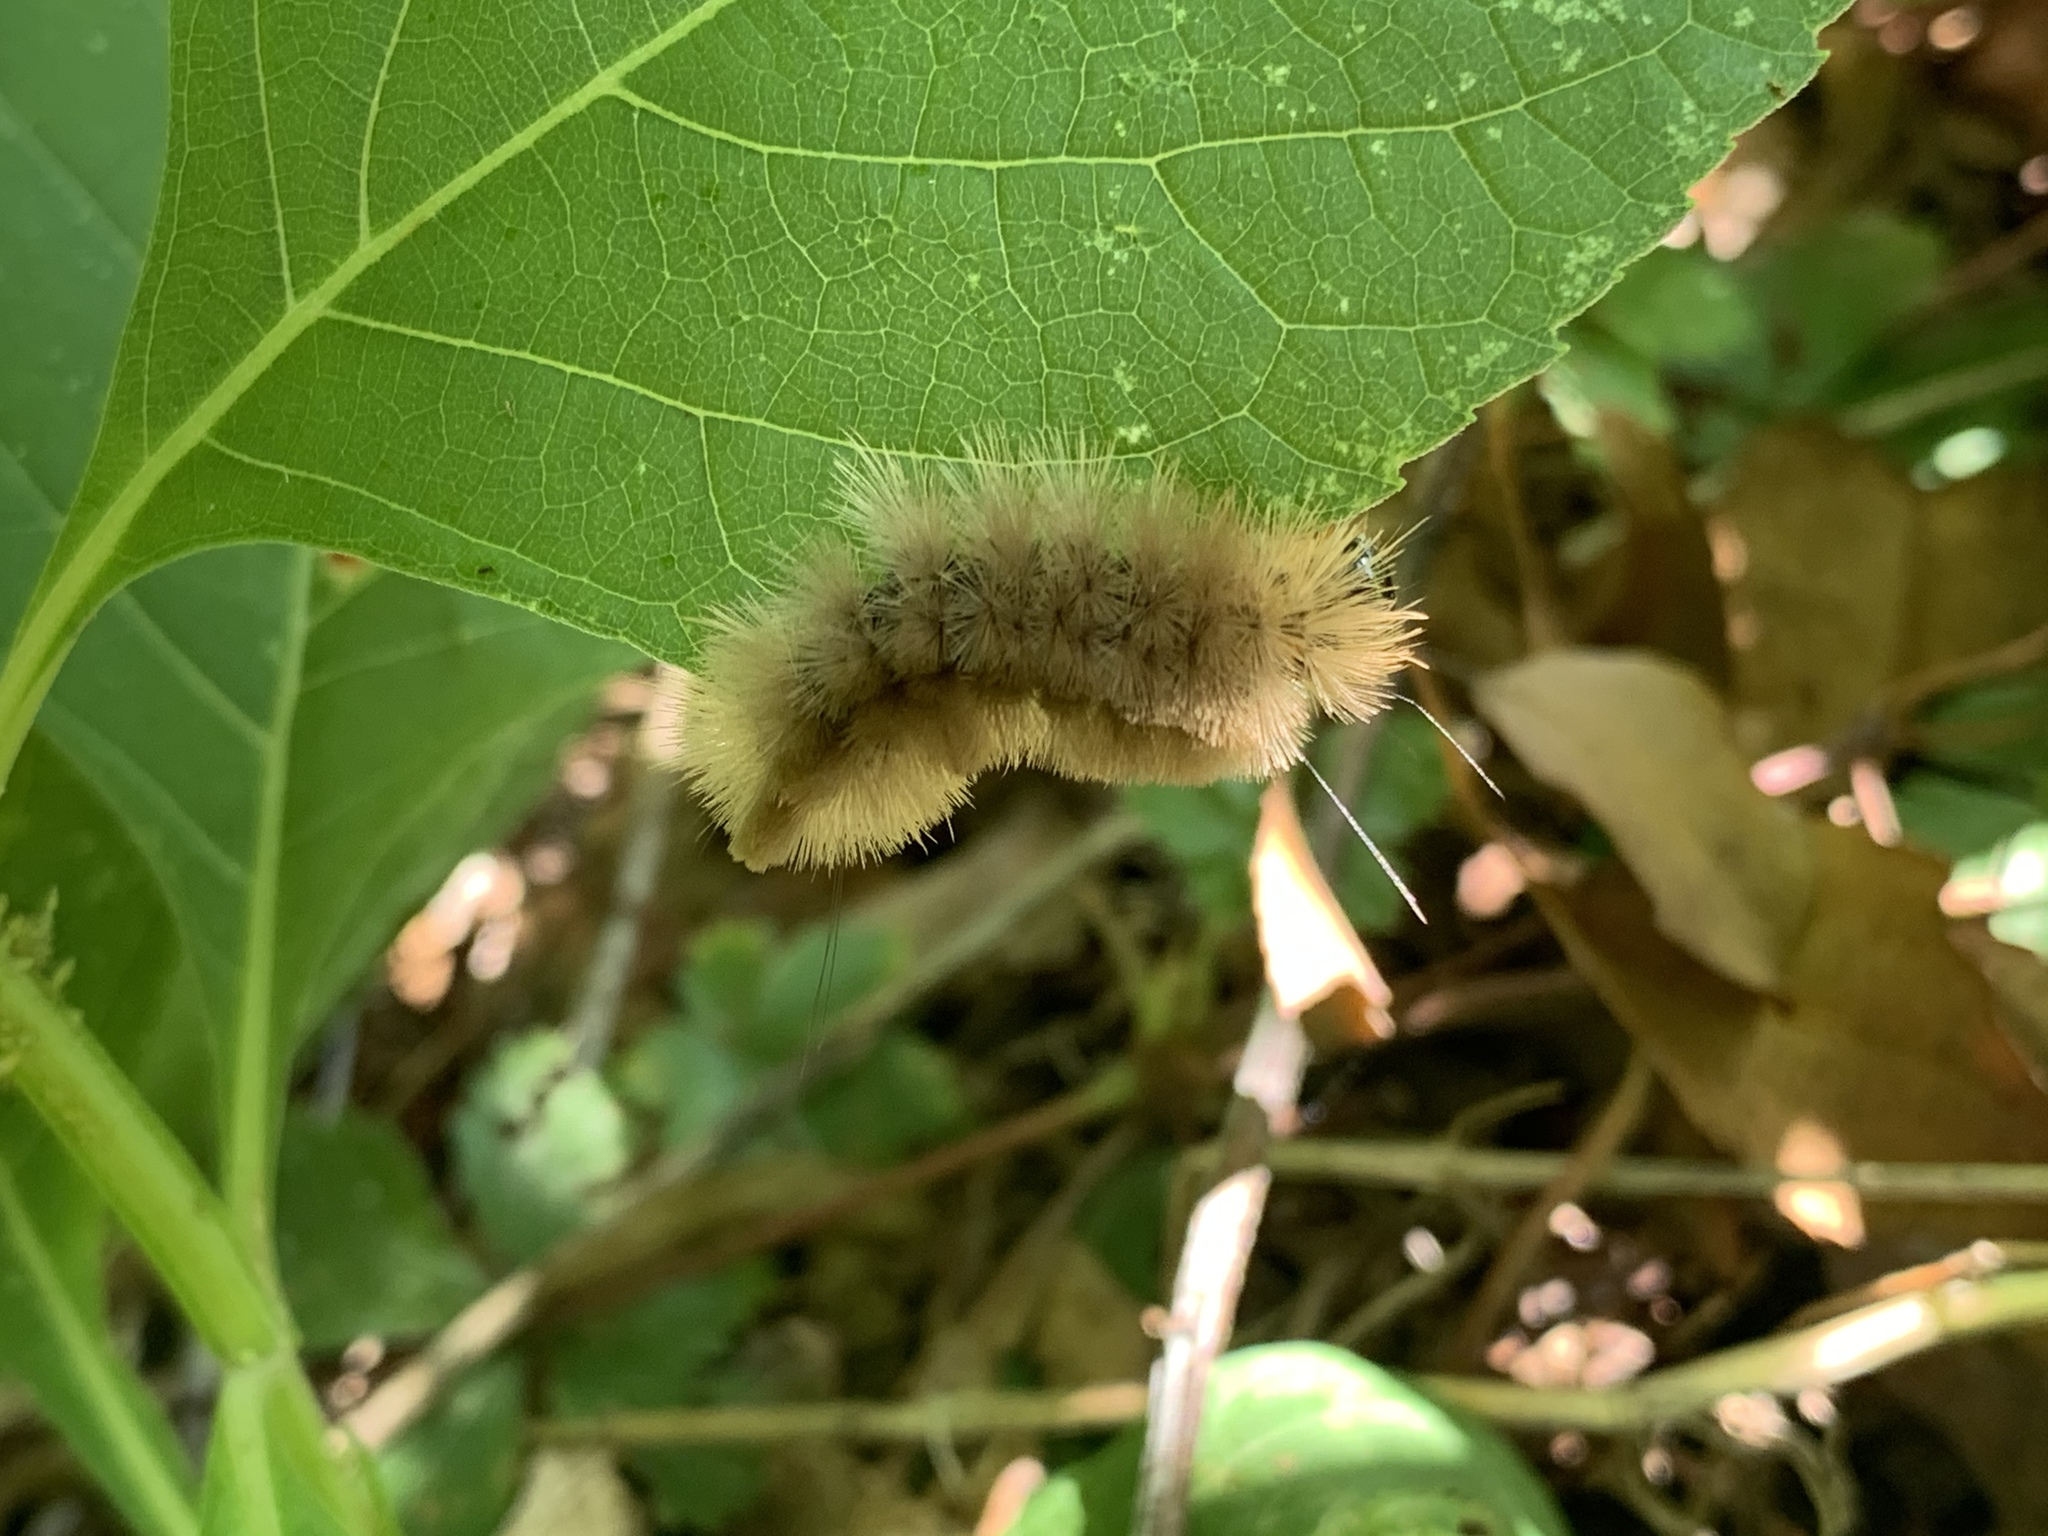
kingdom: Animalia
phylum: Arthropoda
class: Insecta
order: Lepidoptera
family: Erebidae
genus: Halysidota
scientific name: Halysidota tessellaris
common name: Banded tussock moth
